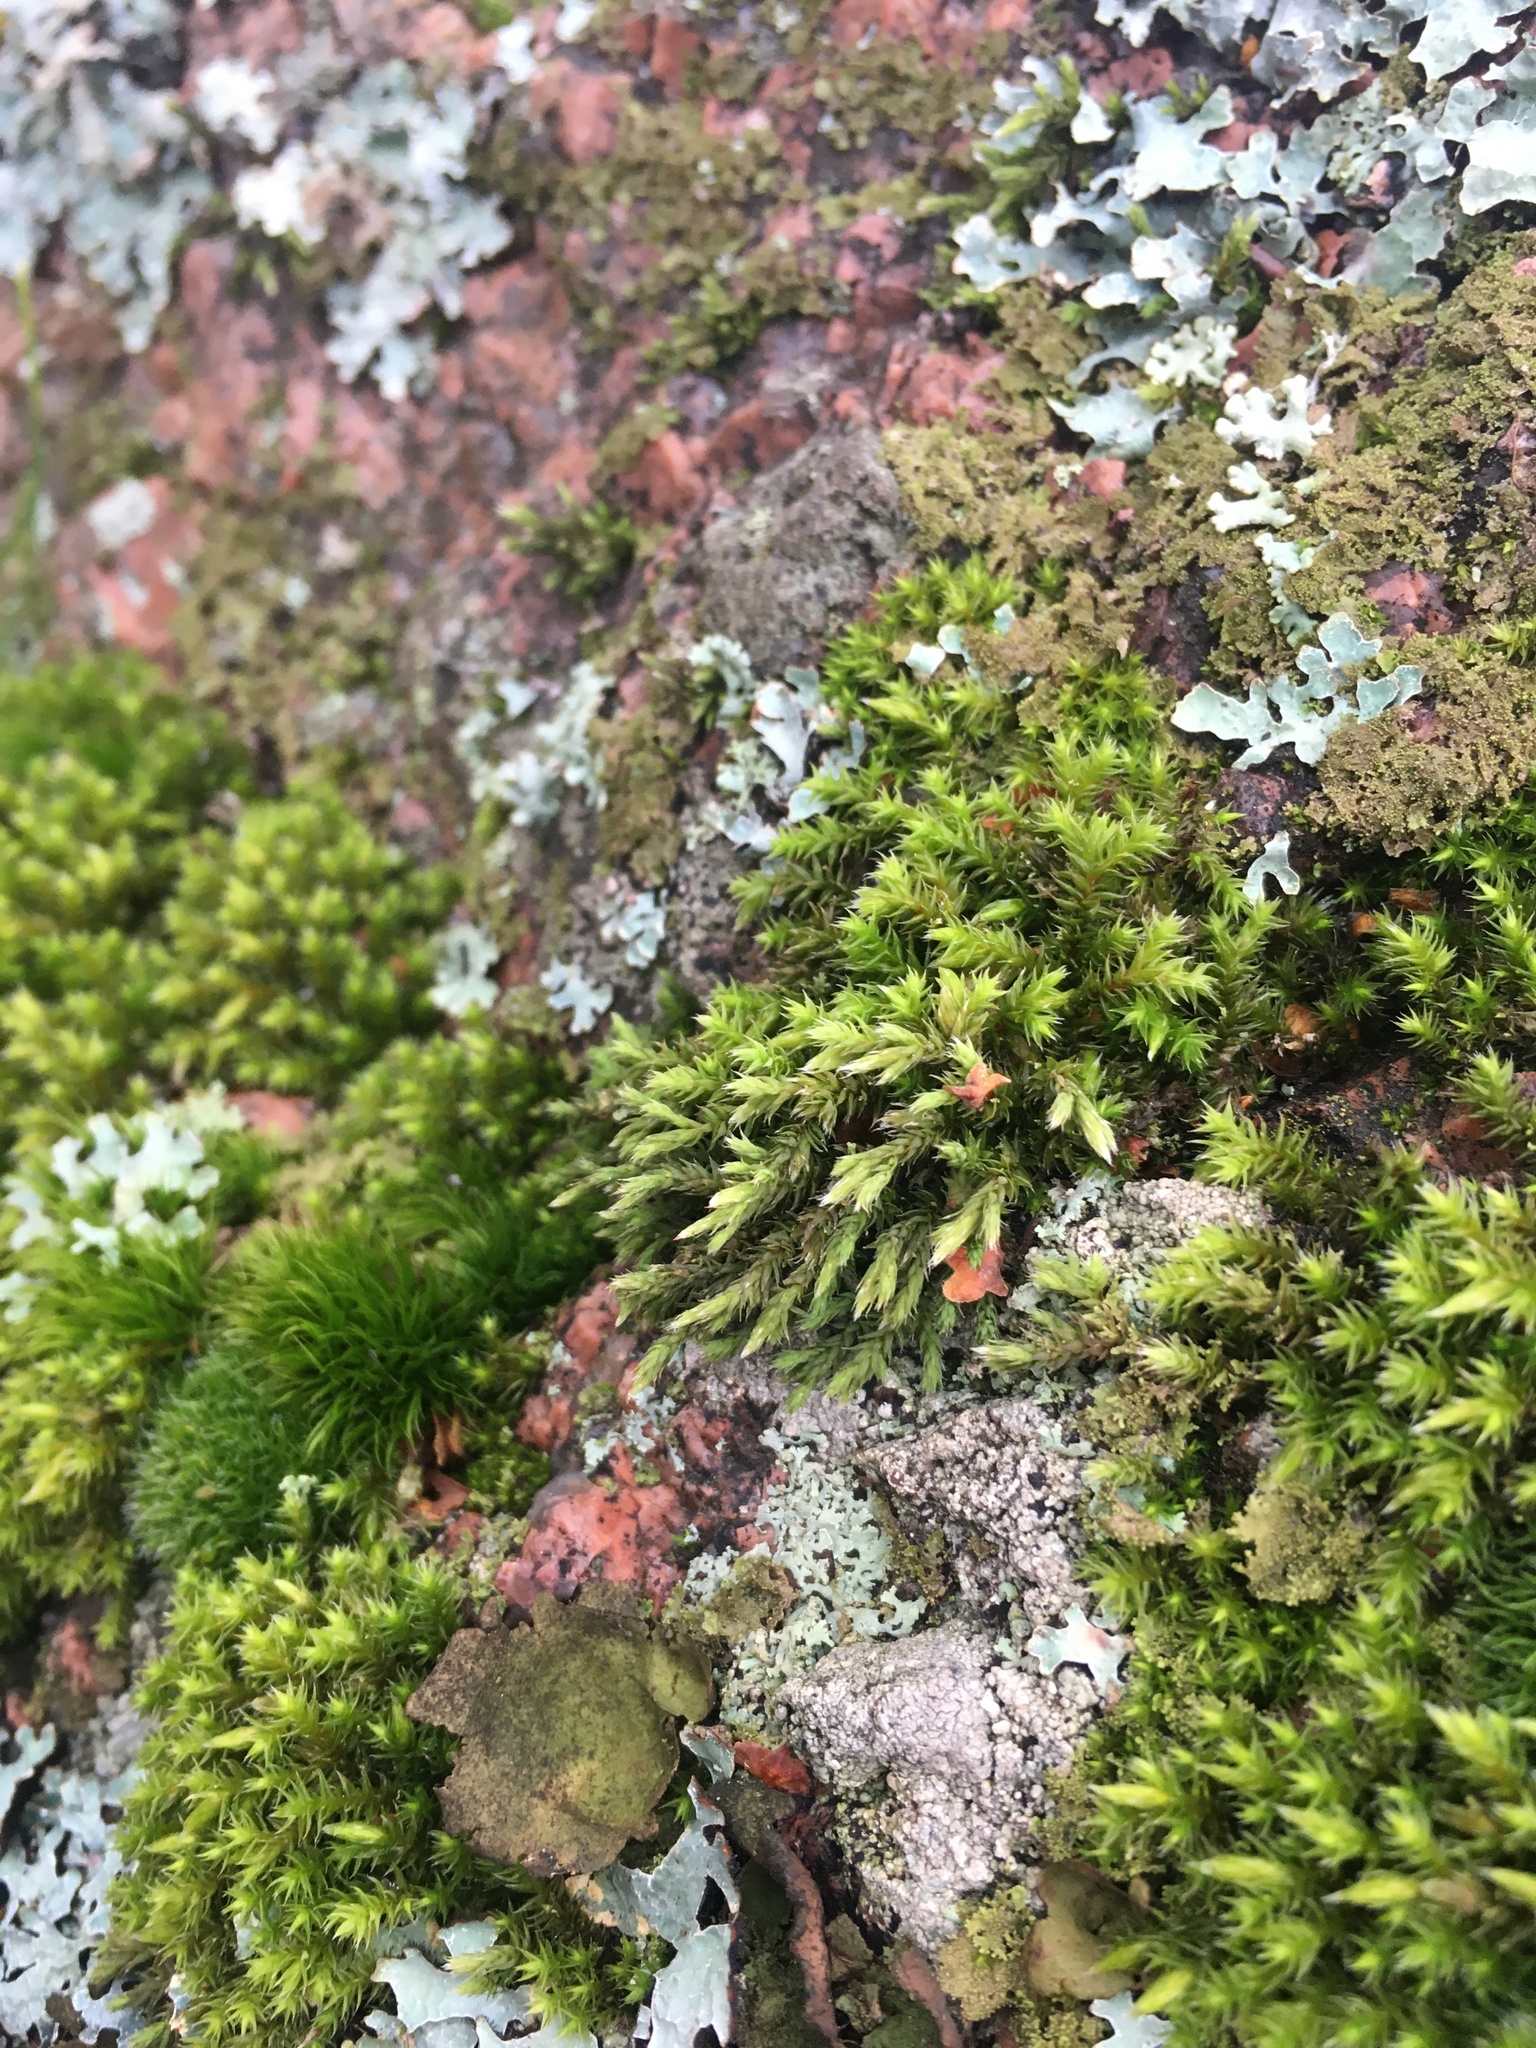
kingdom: Plantae
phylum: Bryophyta
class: Bryopsida
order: Hedwigiales
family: Hedwigiaceae
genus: Hedwigia
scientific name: Hedwigia ciliata
